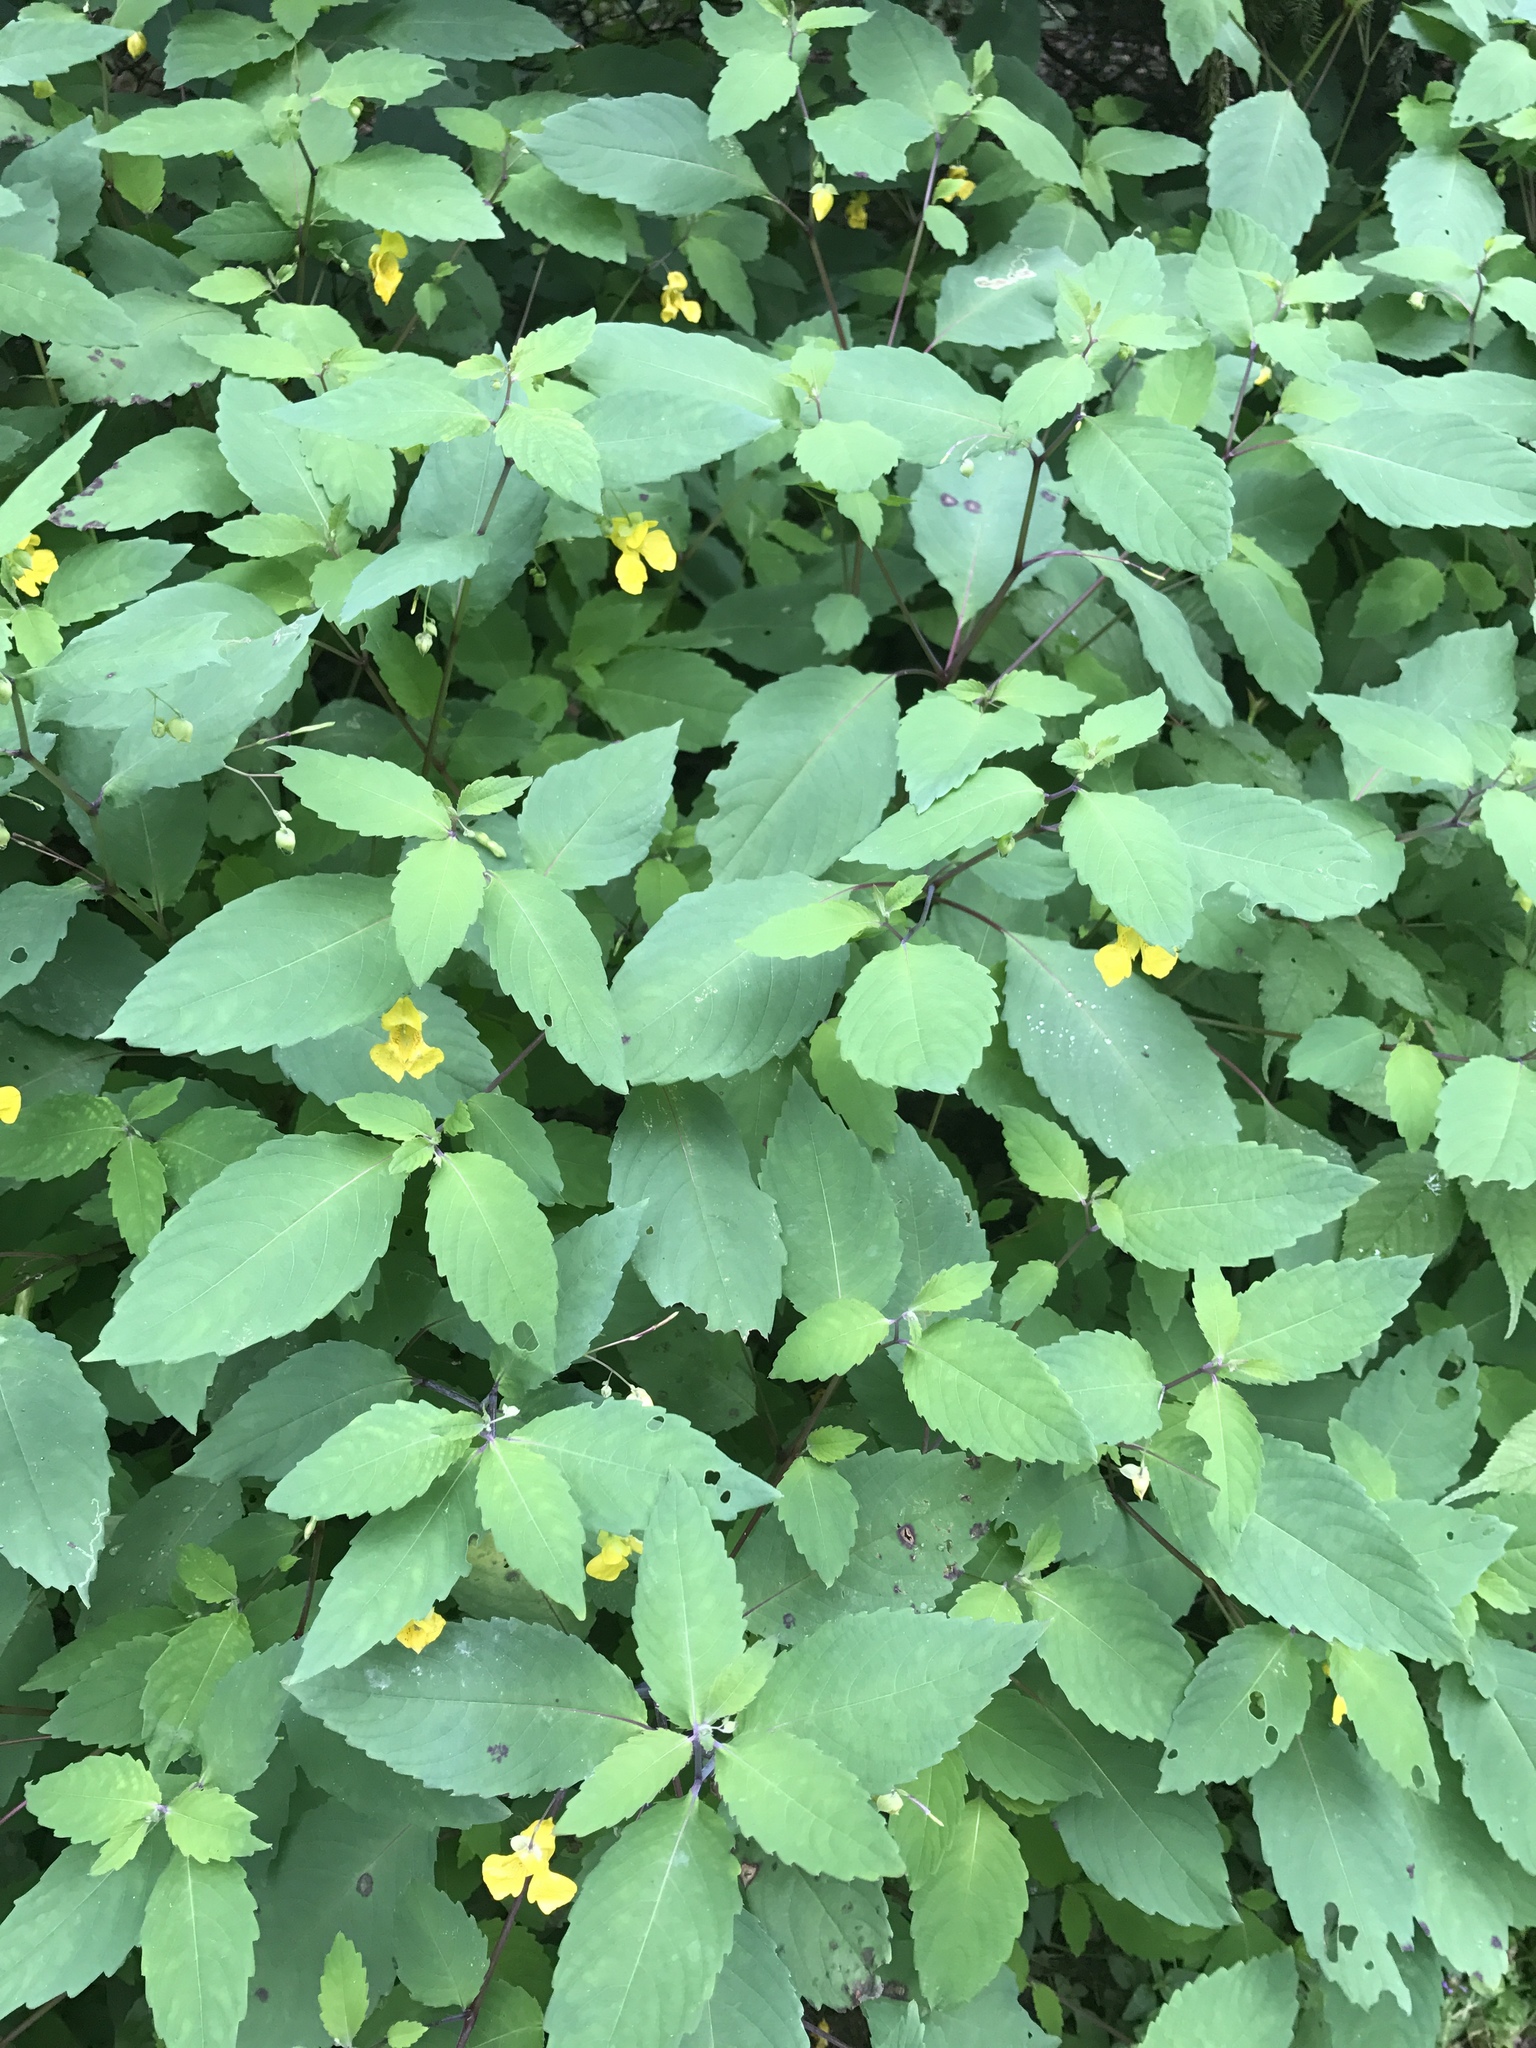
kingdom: Plantae
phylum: Tracheophyta
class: Magnoliopsida
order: Ericales
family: Balsaminaceae
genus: Impatiens
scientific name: Impatiens pallida
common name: Pale snapweed
